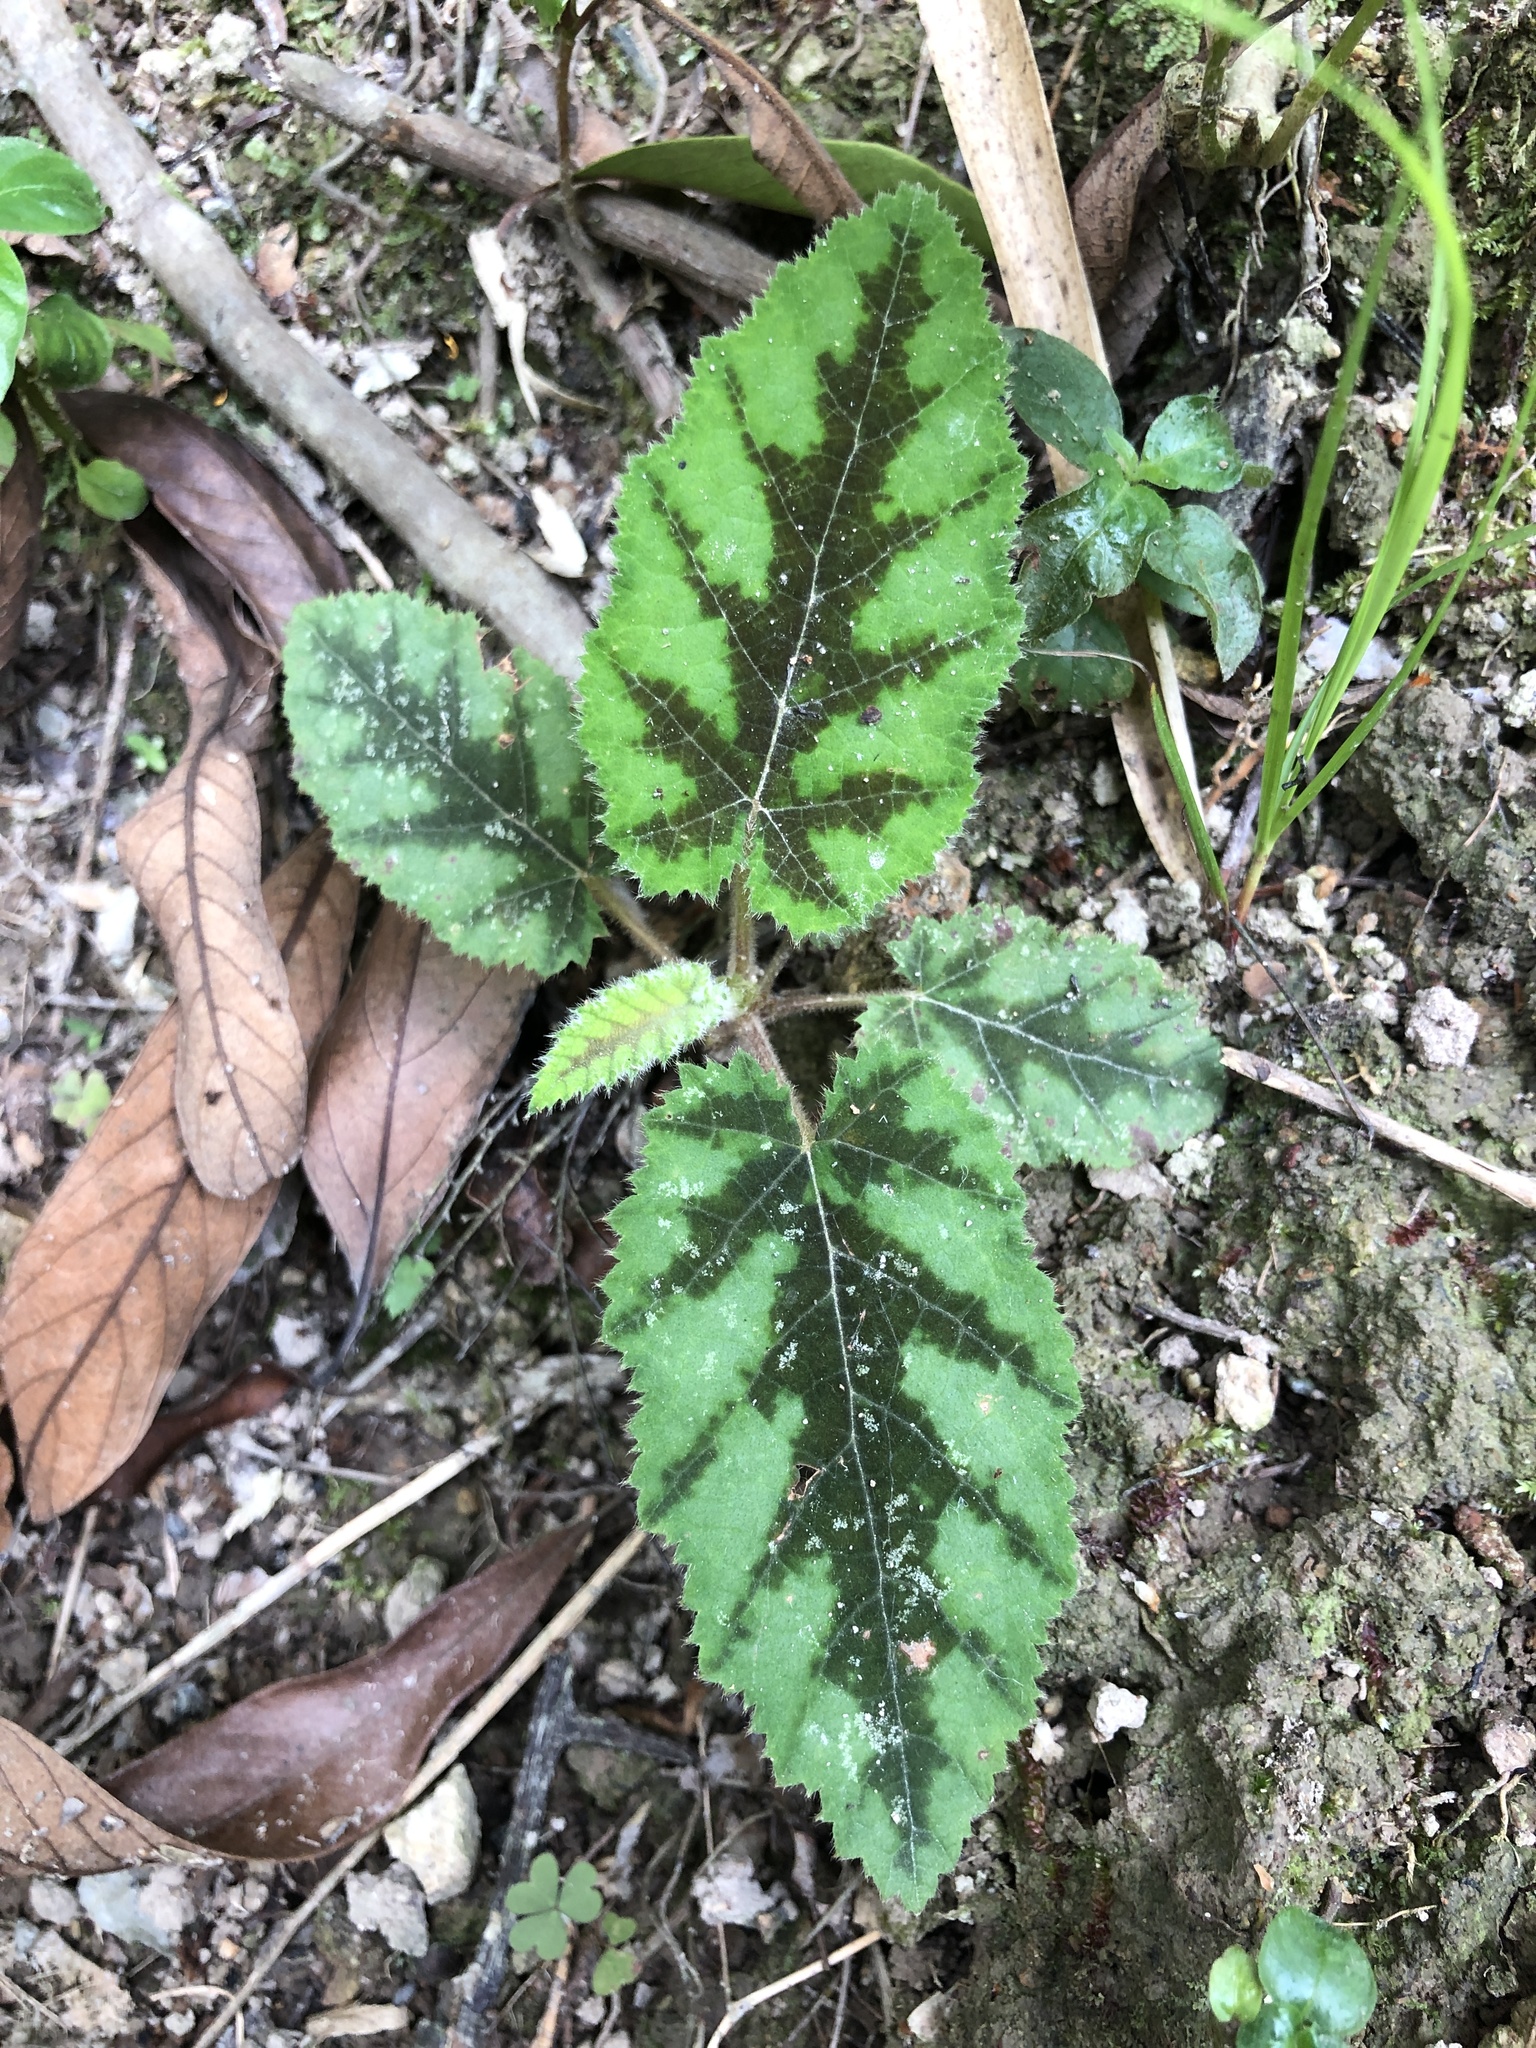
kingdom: Plantae
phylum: Tracheophyta
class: Magnoliopsida
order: Rosales
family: Rosaceae
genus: Rubus
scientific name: Rubus reflexus
